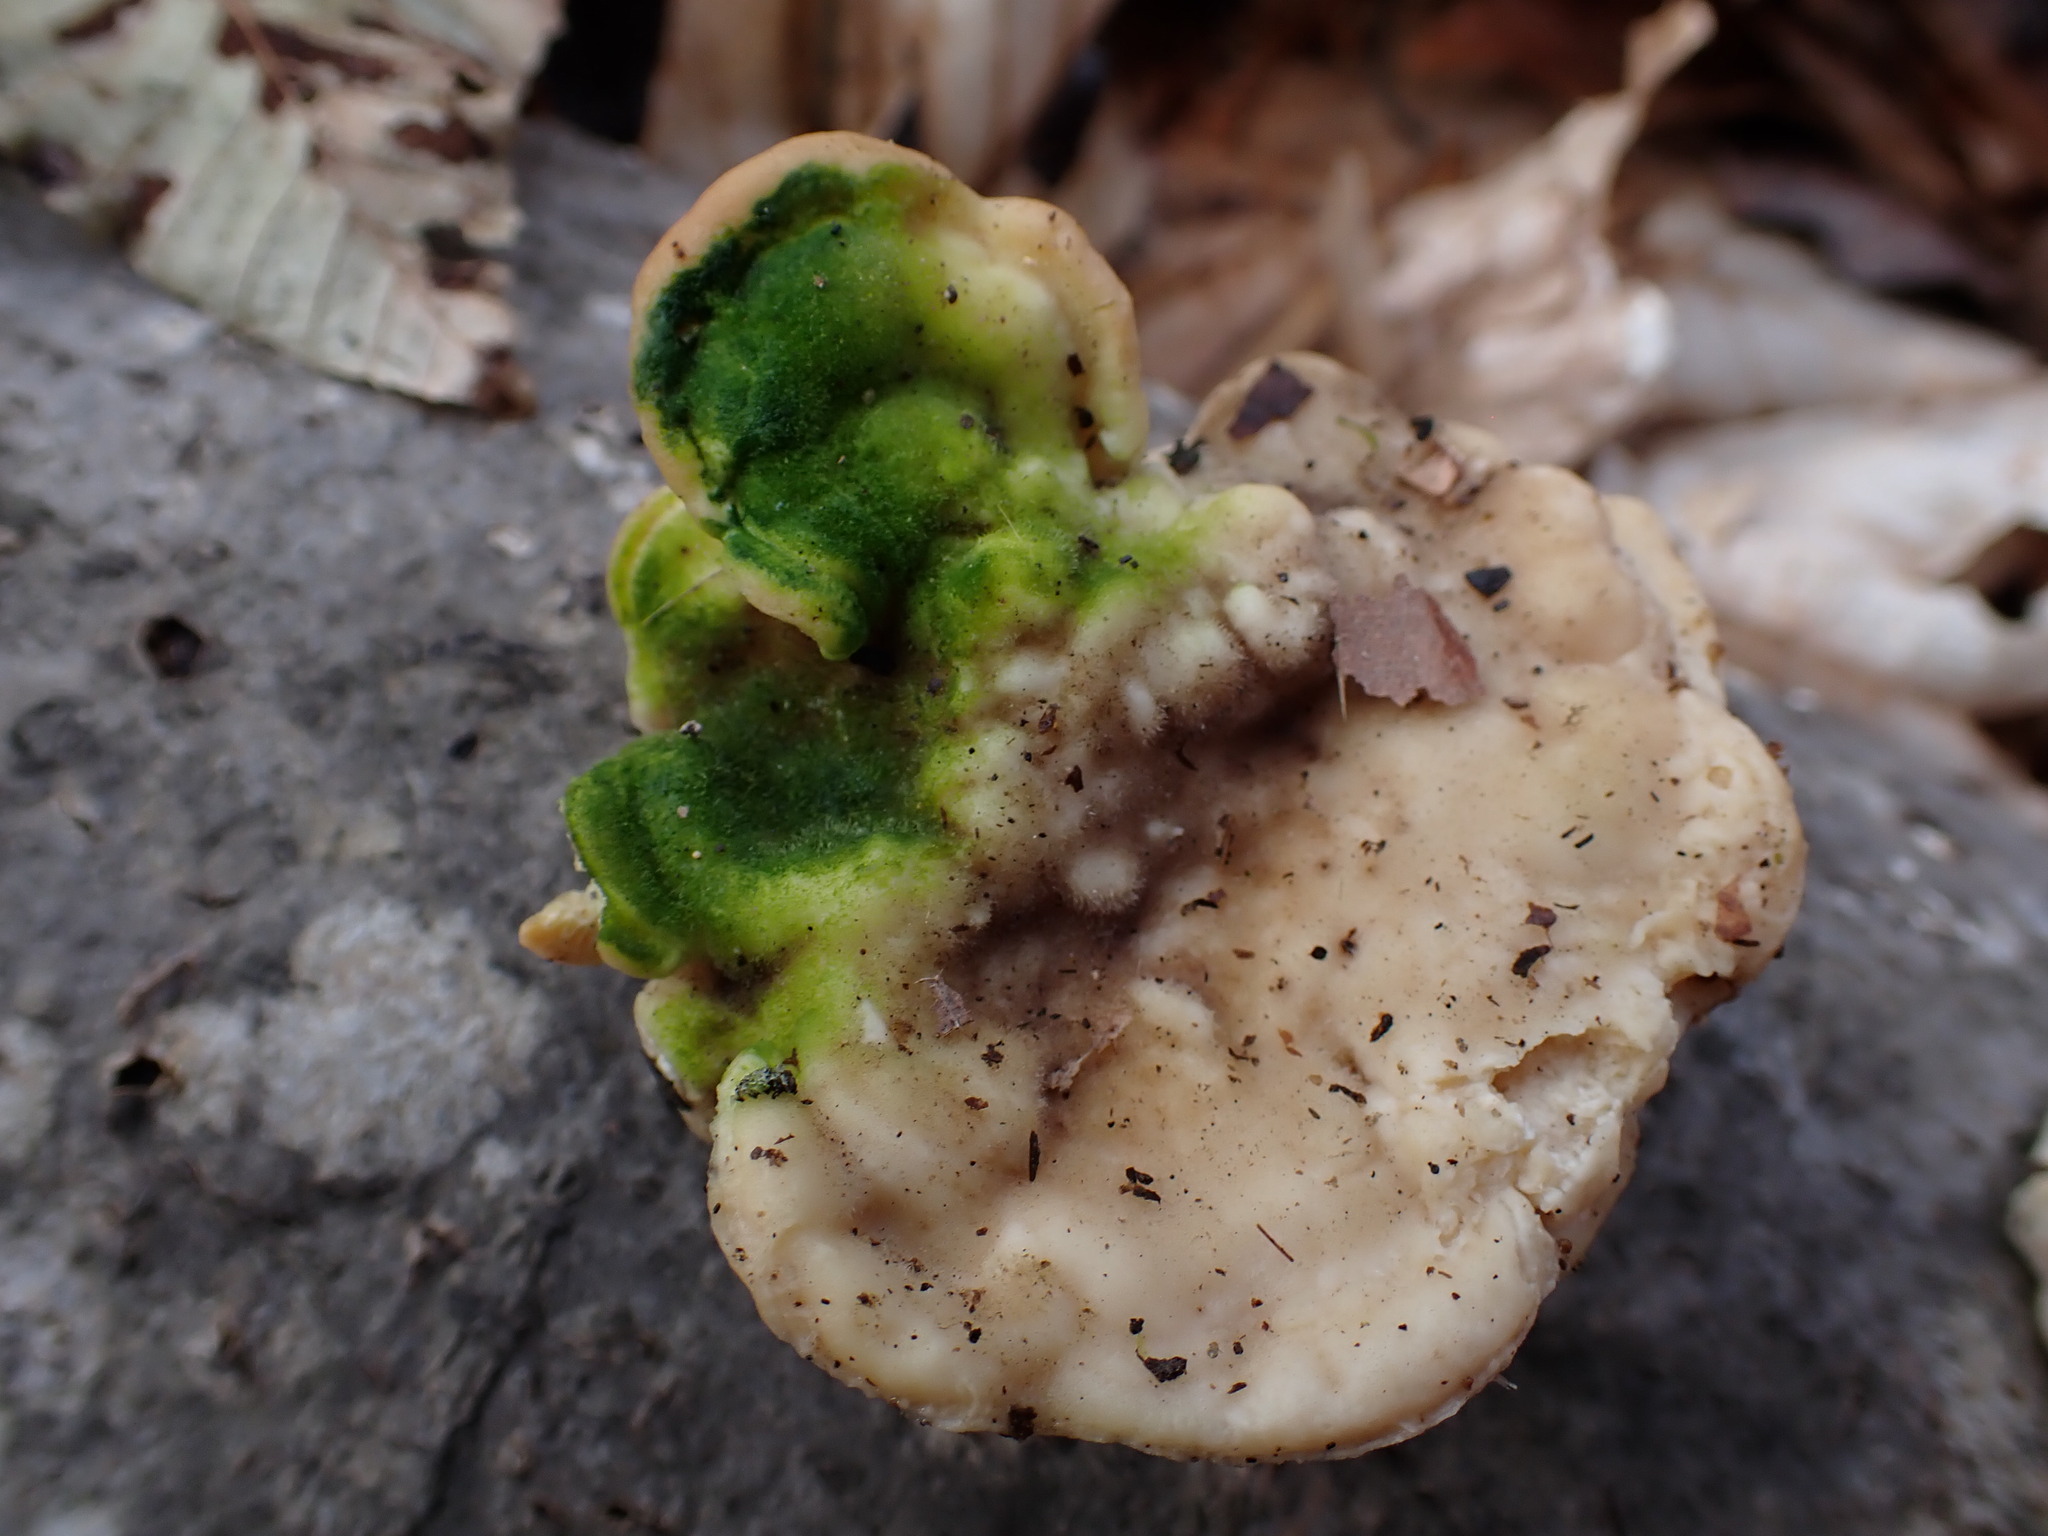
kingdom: Fungi
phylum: Basidiomycota
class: Agaricomycetes
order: Polyporales
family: Polyporaceae
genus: Trametes
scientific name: Trametes gibbosa
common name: Lumpy bracket
